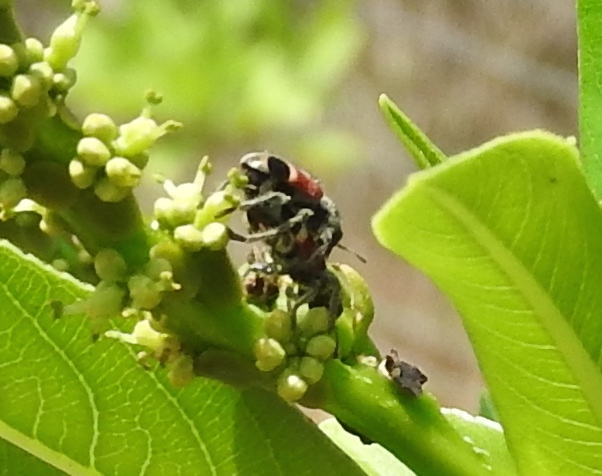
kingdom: Animalia
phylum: Arthropoda
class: Insecta
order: Coleoptera
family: Cleridae
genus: Enoclerus
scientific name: Enoclerus opifex
